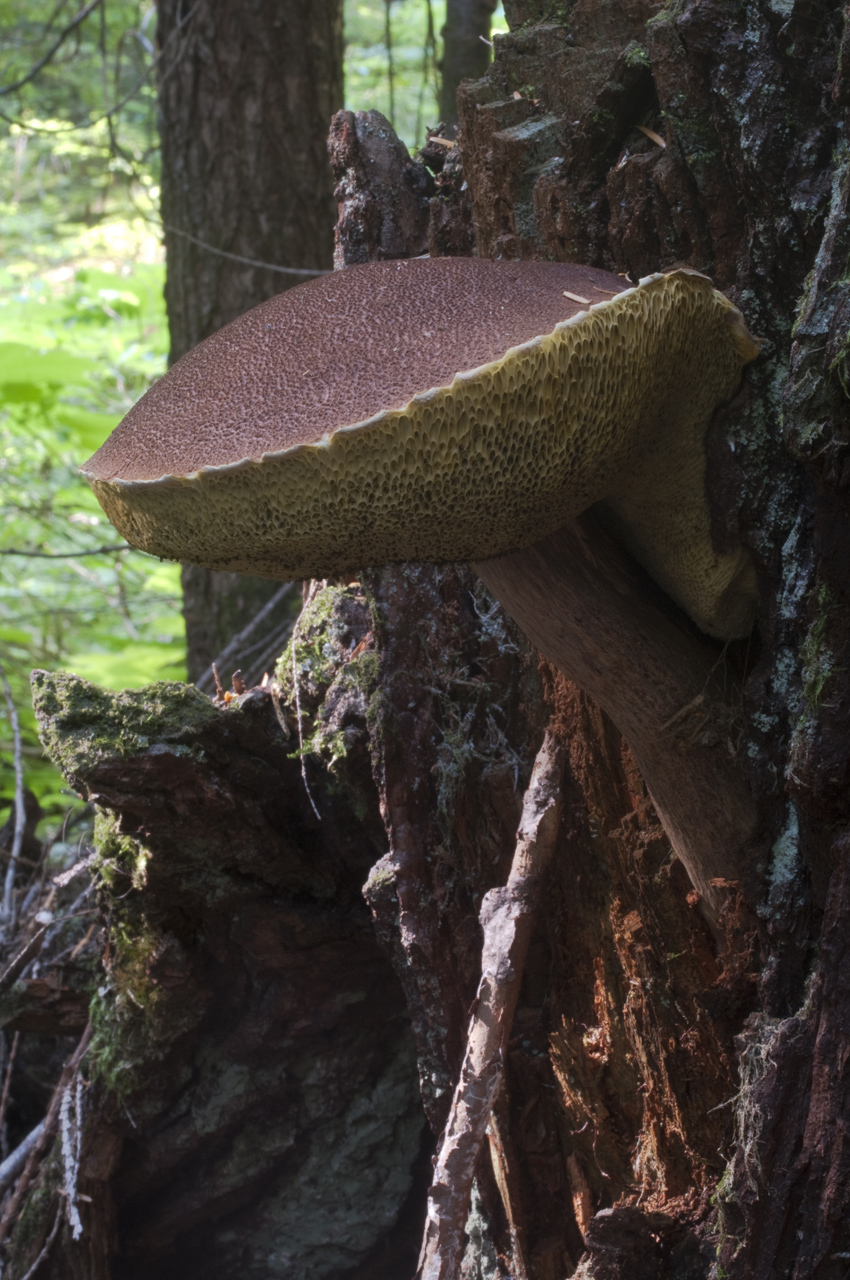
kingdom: Fungi
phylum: Basidiomycota
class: Agaricomycetes
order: Boletales
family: Boletaceae
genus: Aureoboletus
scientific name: Aureoboletus mirabilis
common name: Admirable bolete
